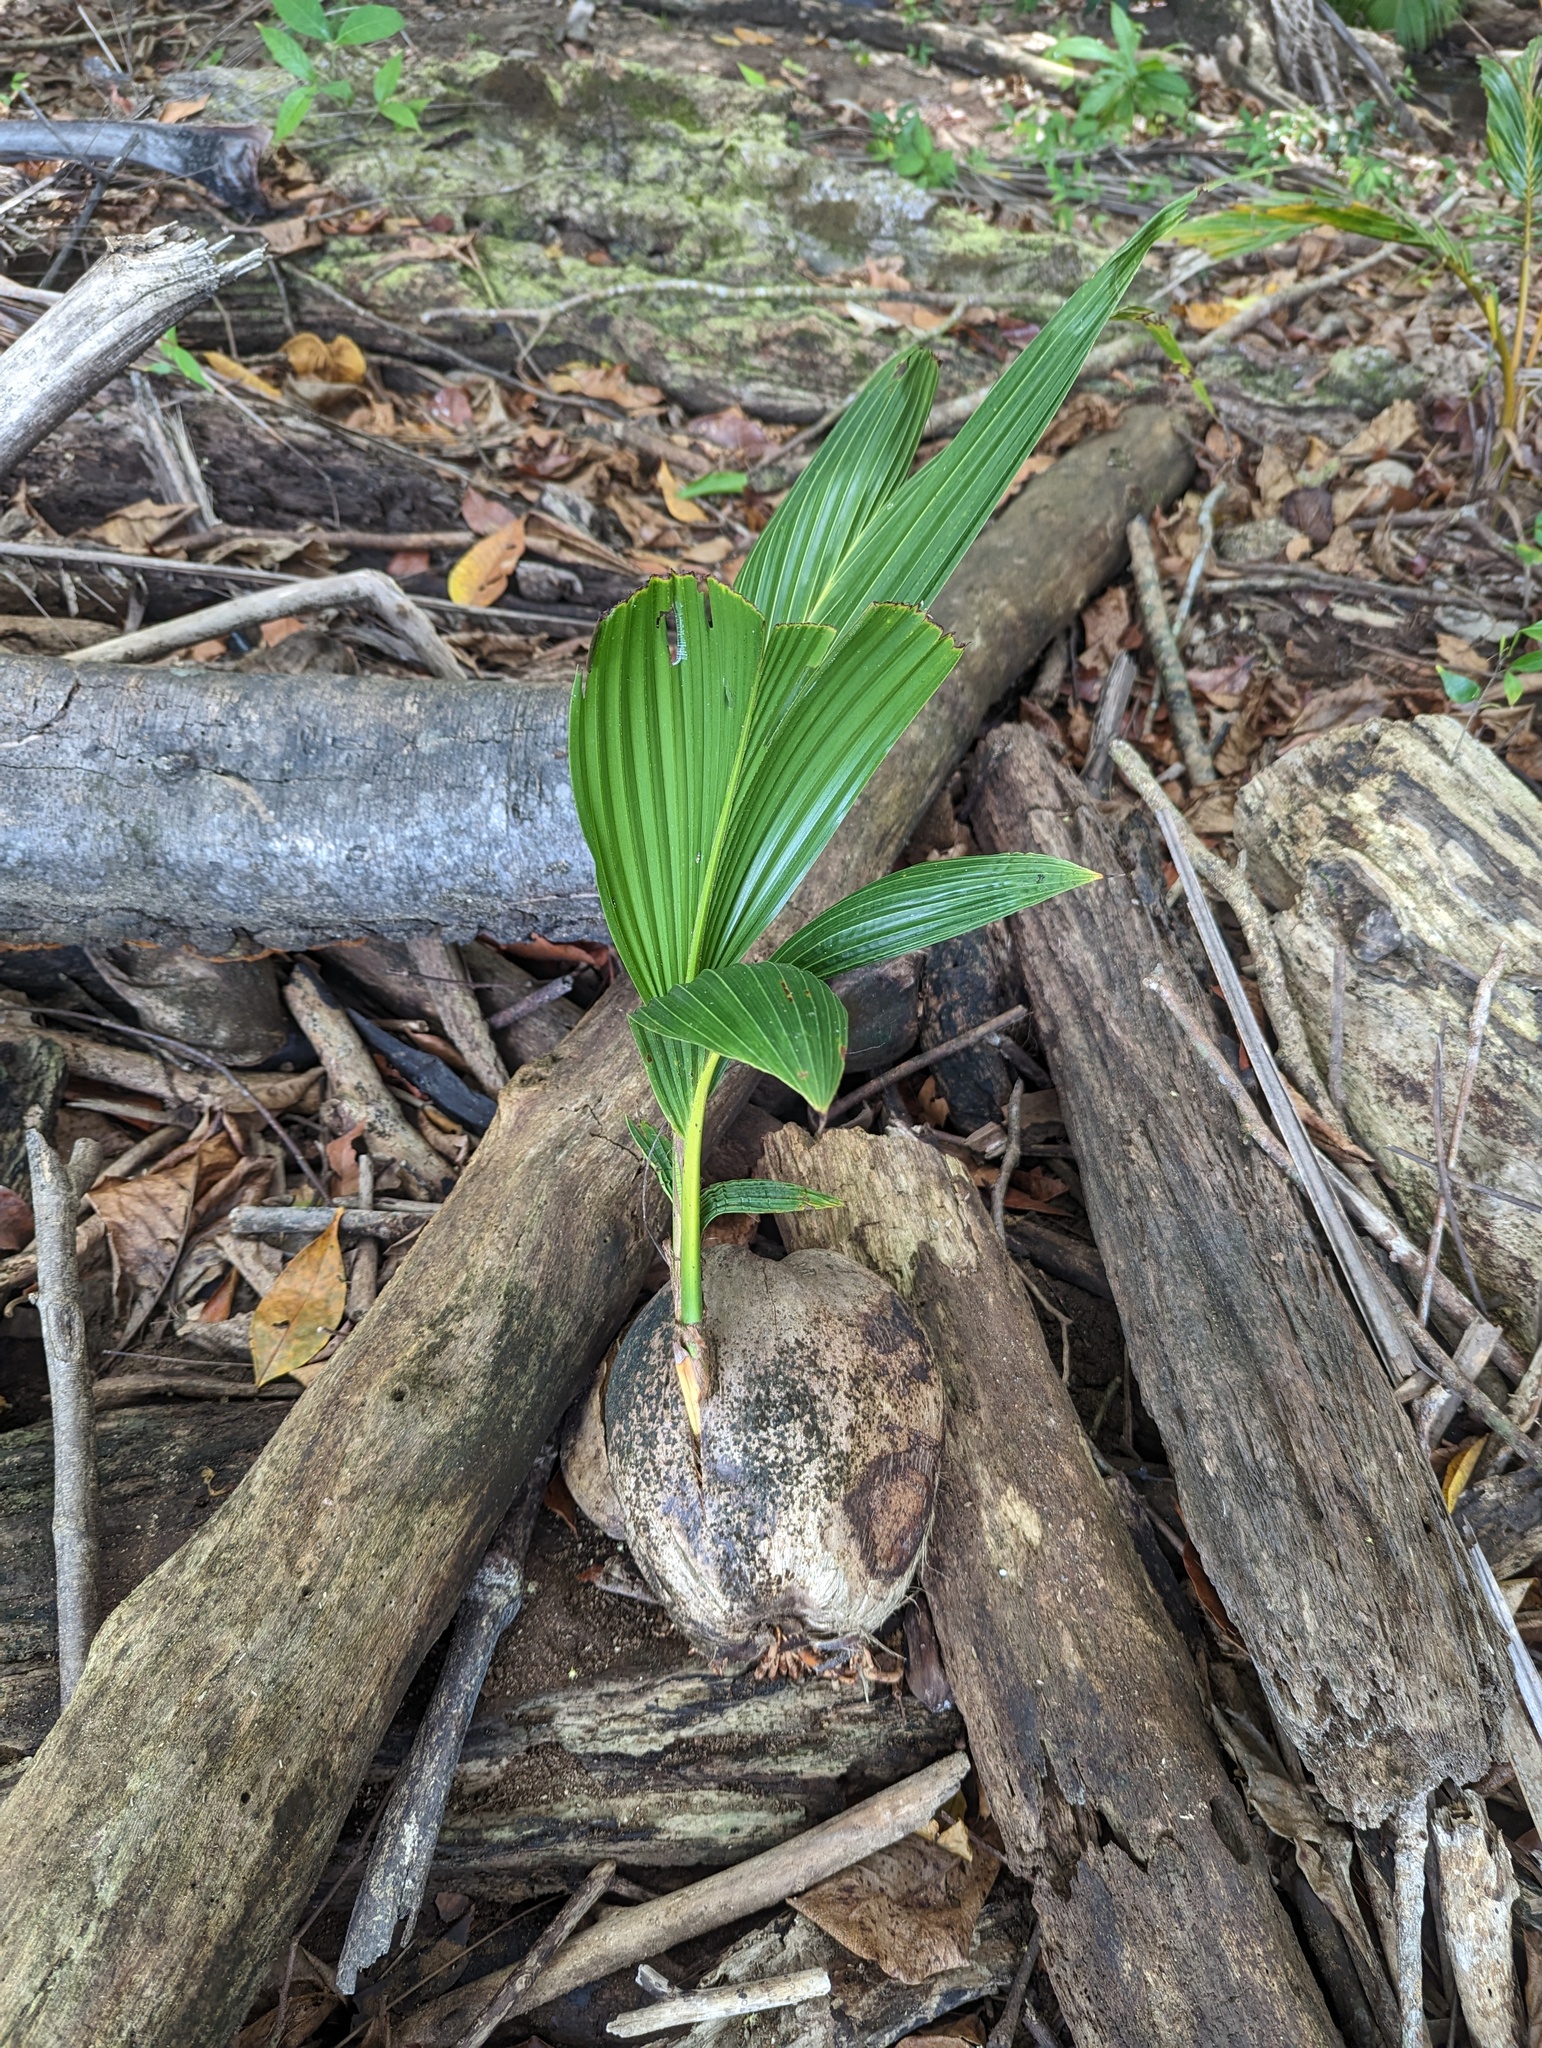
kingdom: Plantae
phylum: Tracheophyta
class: Liliopsida
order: Arecales
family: Arecaceae
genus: Cocos
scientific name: Cocos nucifera
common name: Coconut palm
